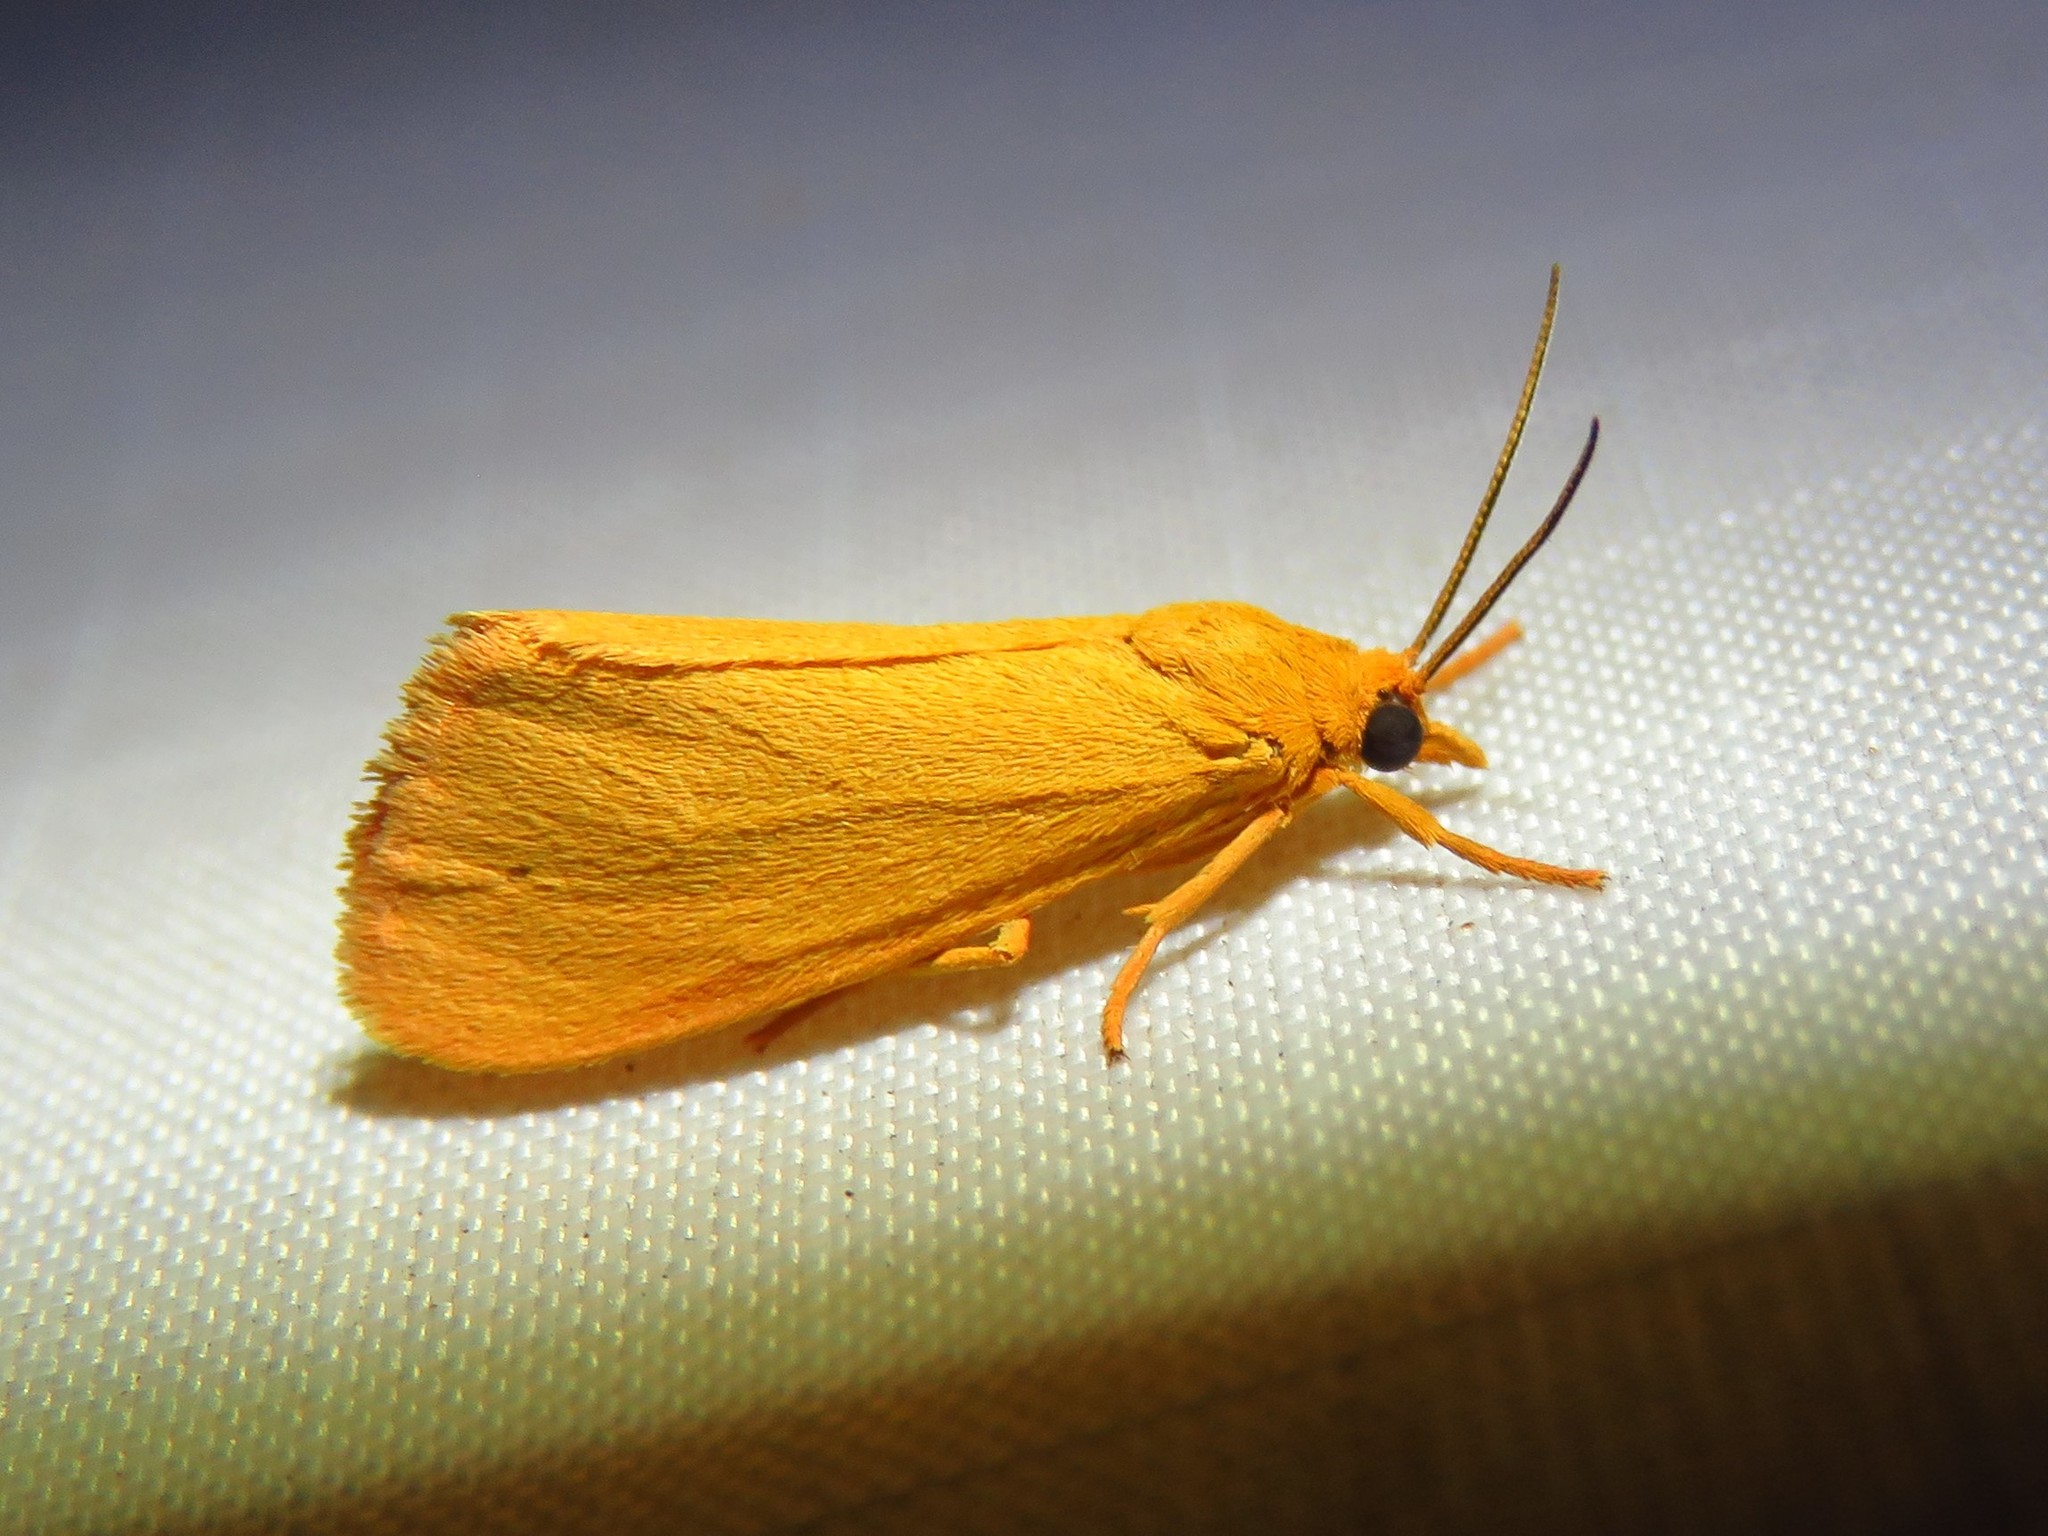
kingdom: Animalia
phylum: Arthropoda
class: Insecta
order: Lepidoptera
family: Erebidae
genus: Virbia
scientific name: Virbia aurantiaca
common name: Orange virbia moth
